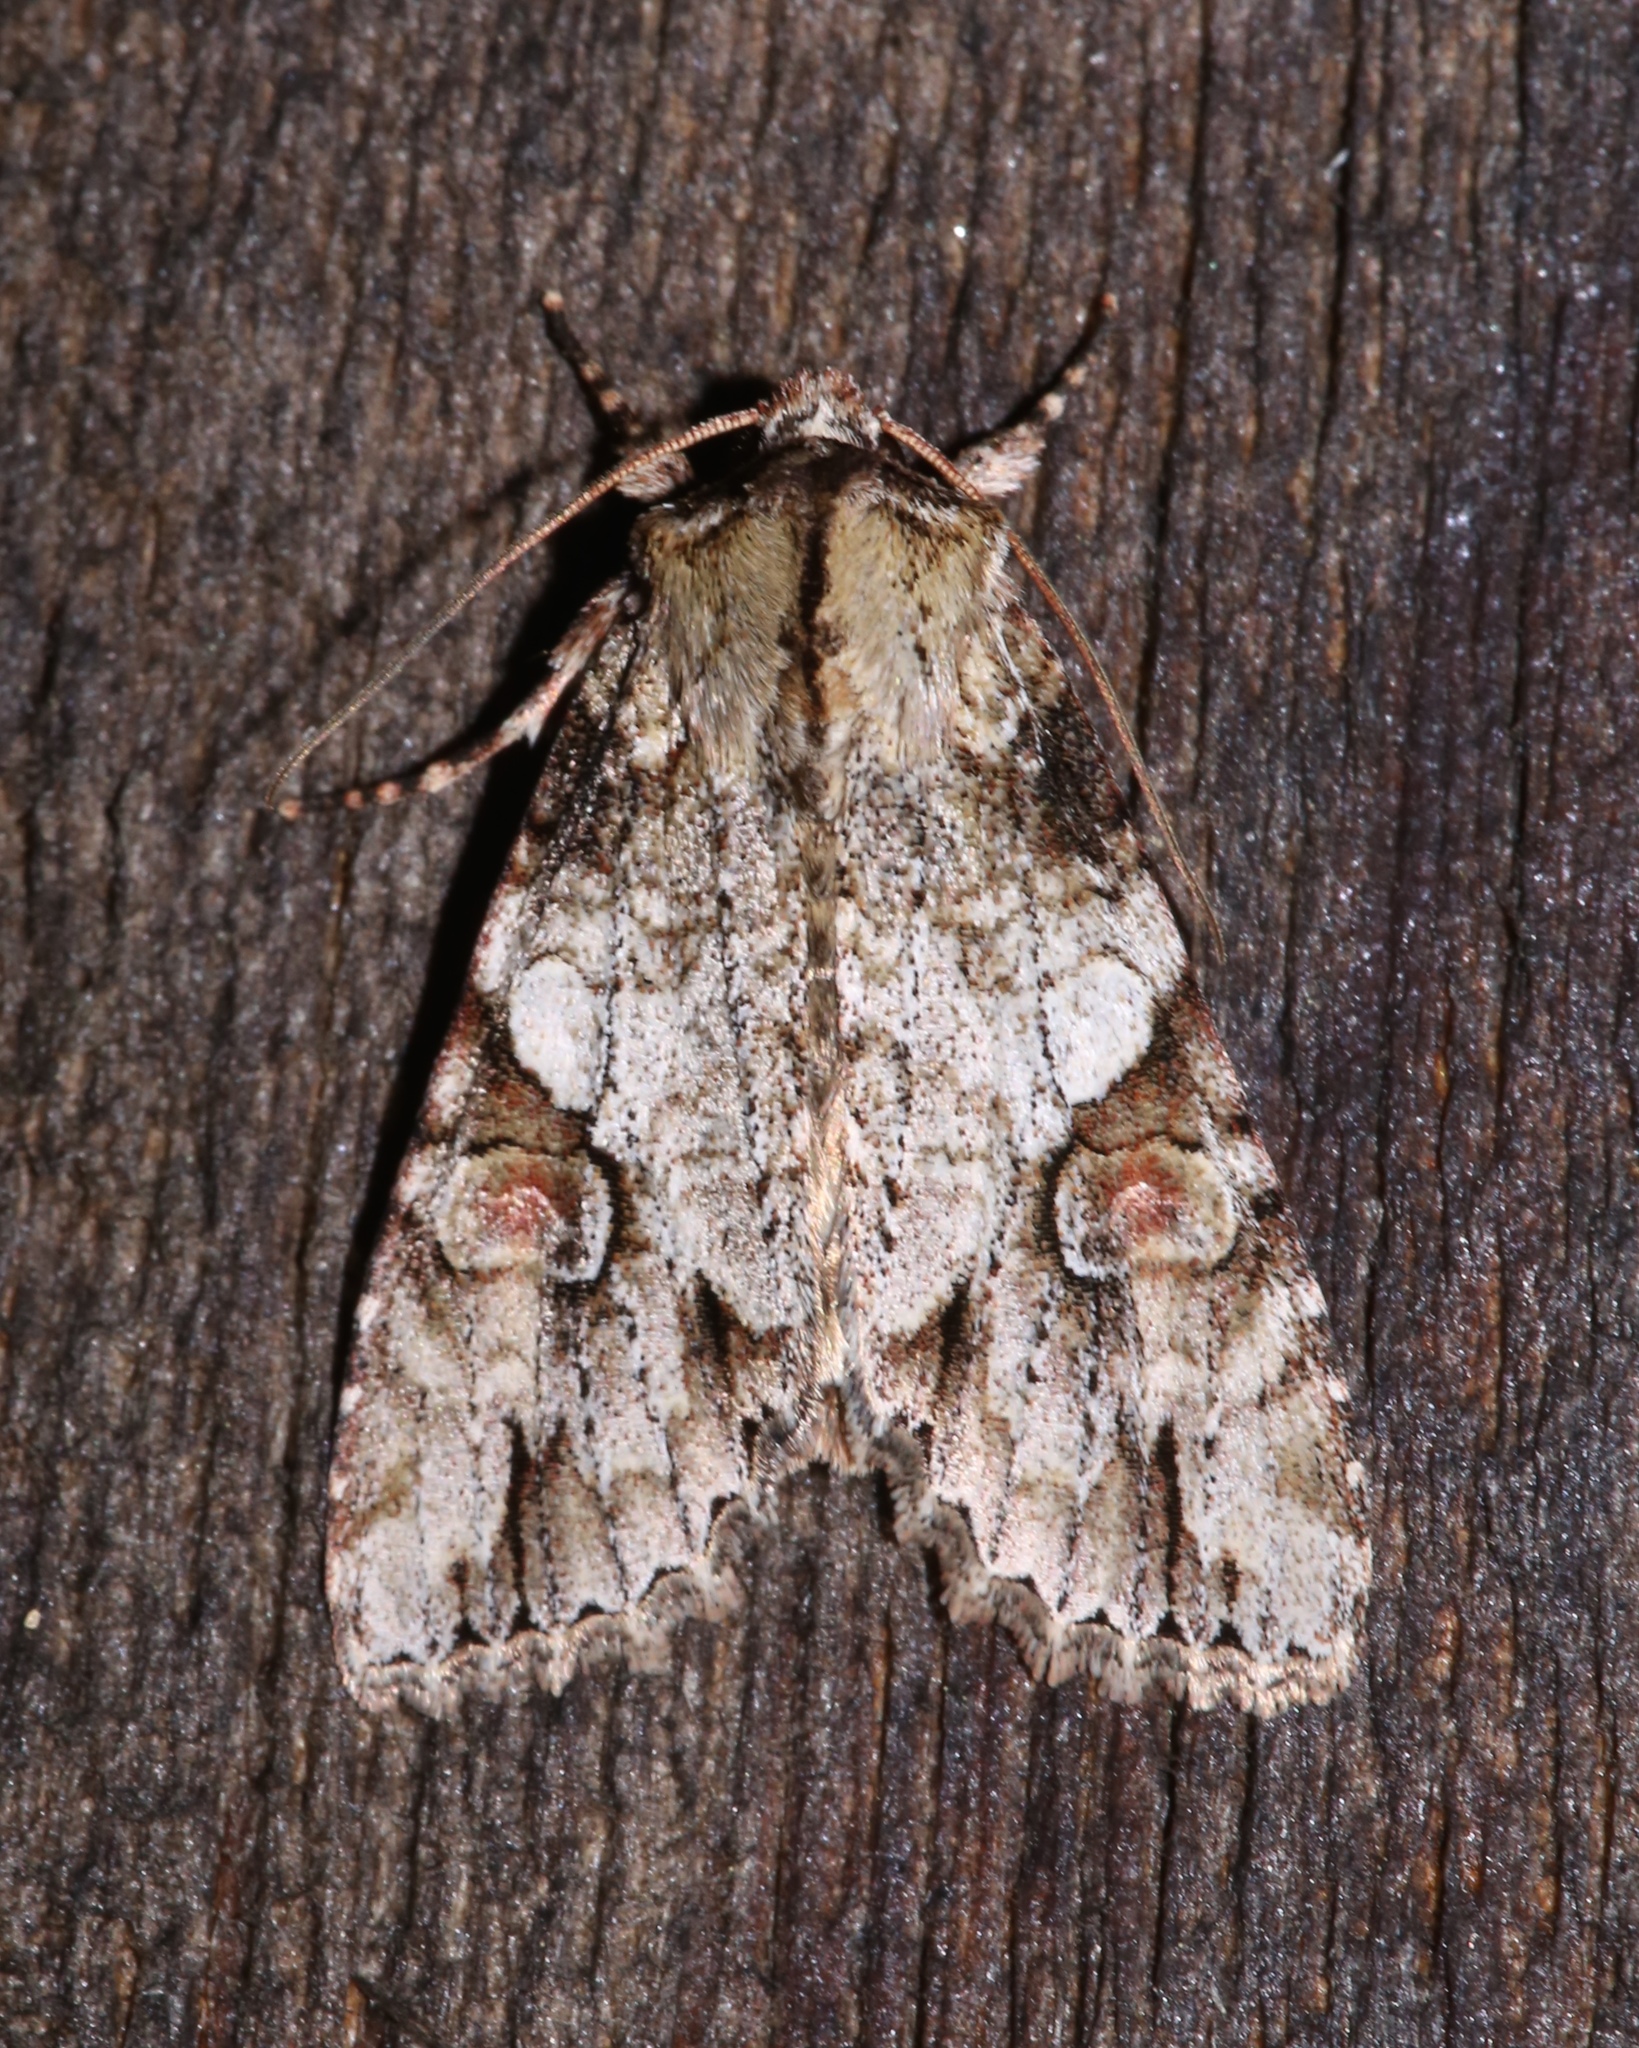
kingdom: Animalia
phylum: Arthropoda
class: Insecta
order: Lepidoptera
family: Noctuidae
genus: Achatia
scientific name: Achatia latex
